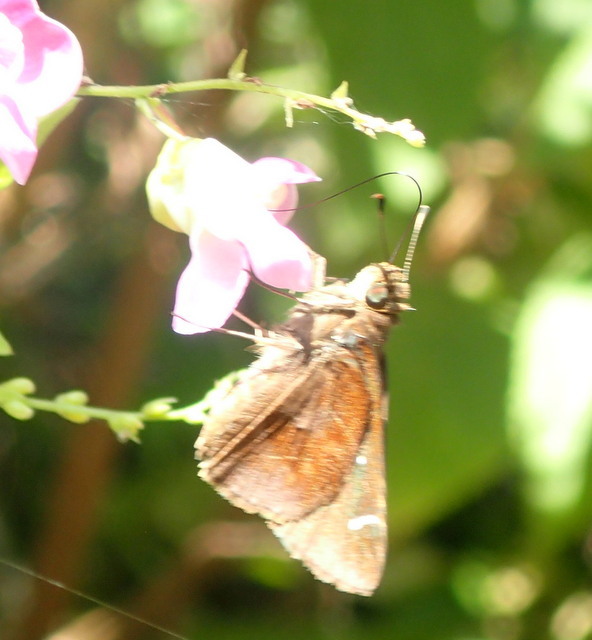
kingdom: Animalia
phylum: Arthropoda
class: Insecta
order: Lepidoptera
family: Hesperiidae
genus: Lerema
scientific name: Lerema accius
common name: Clouded skipper
